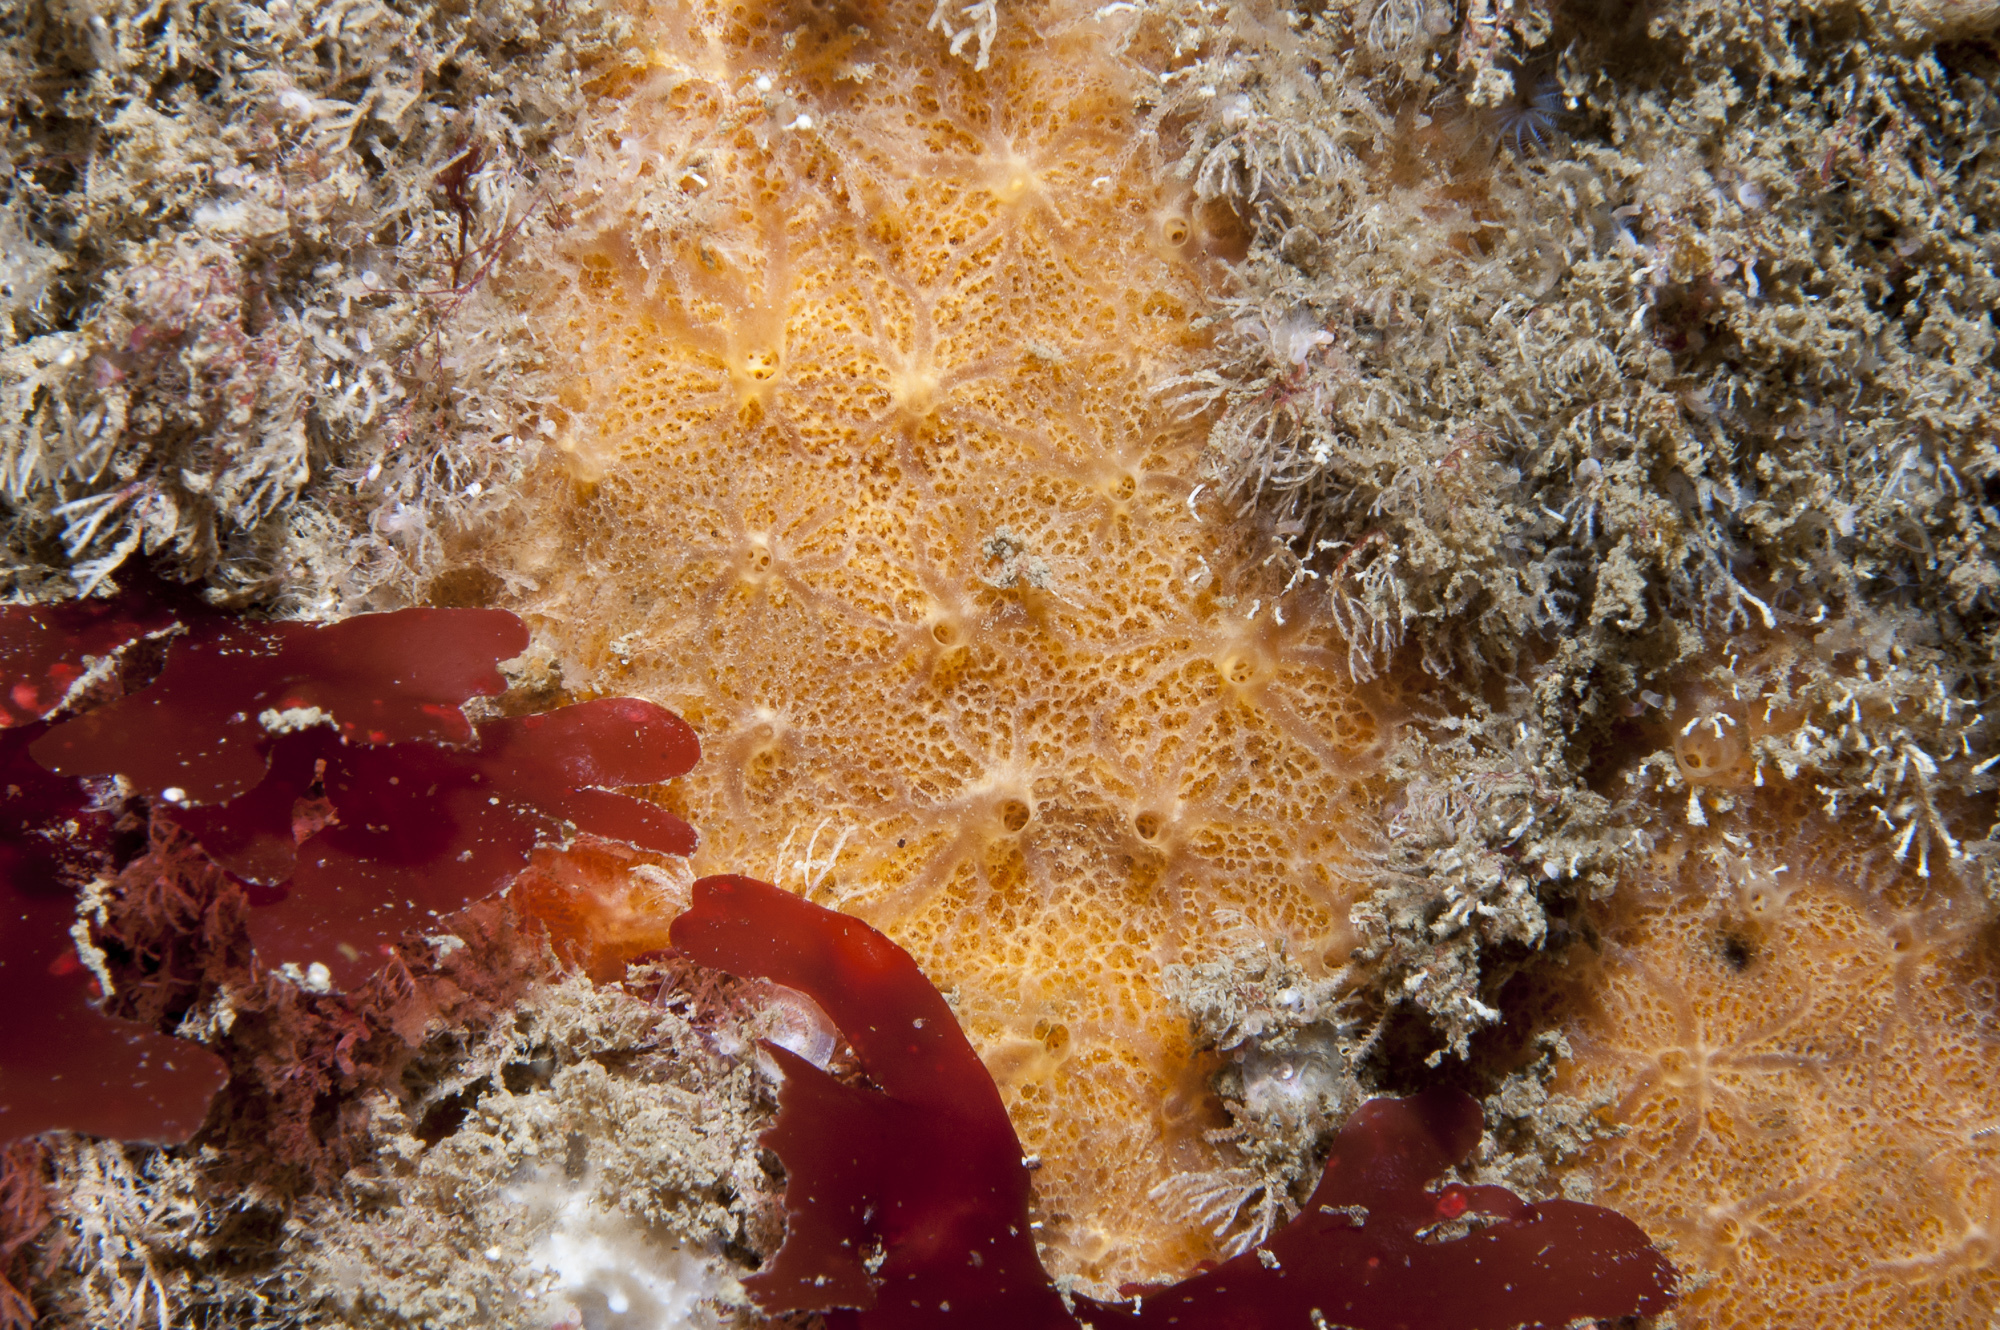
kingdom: Animalia
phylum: Porifera
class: Demospongiae
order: Poecilosclerida
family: Hymedesmiidae
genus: Phorbas
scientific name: Phorbas punctatus
